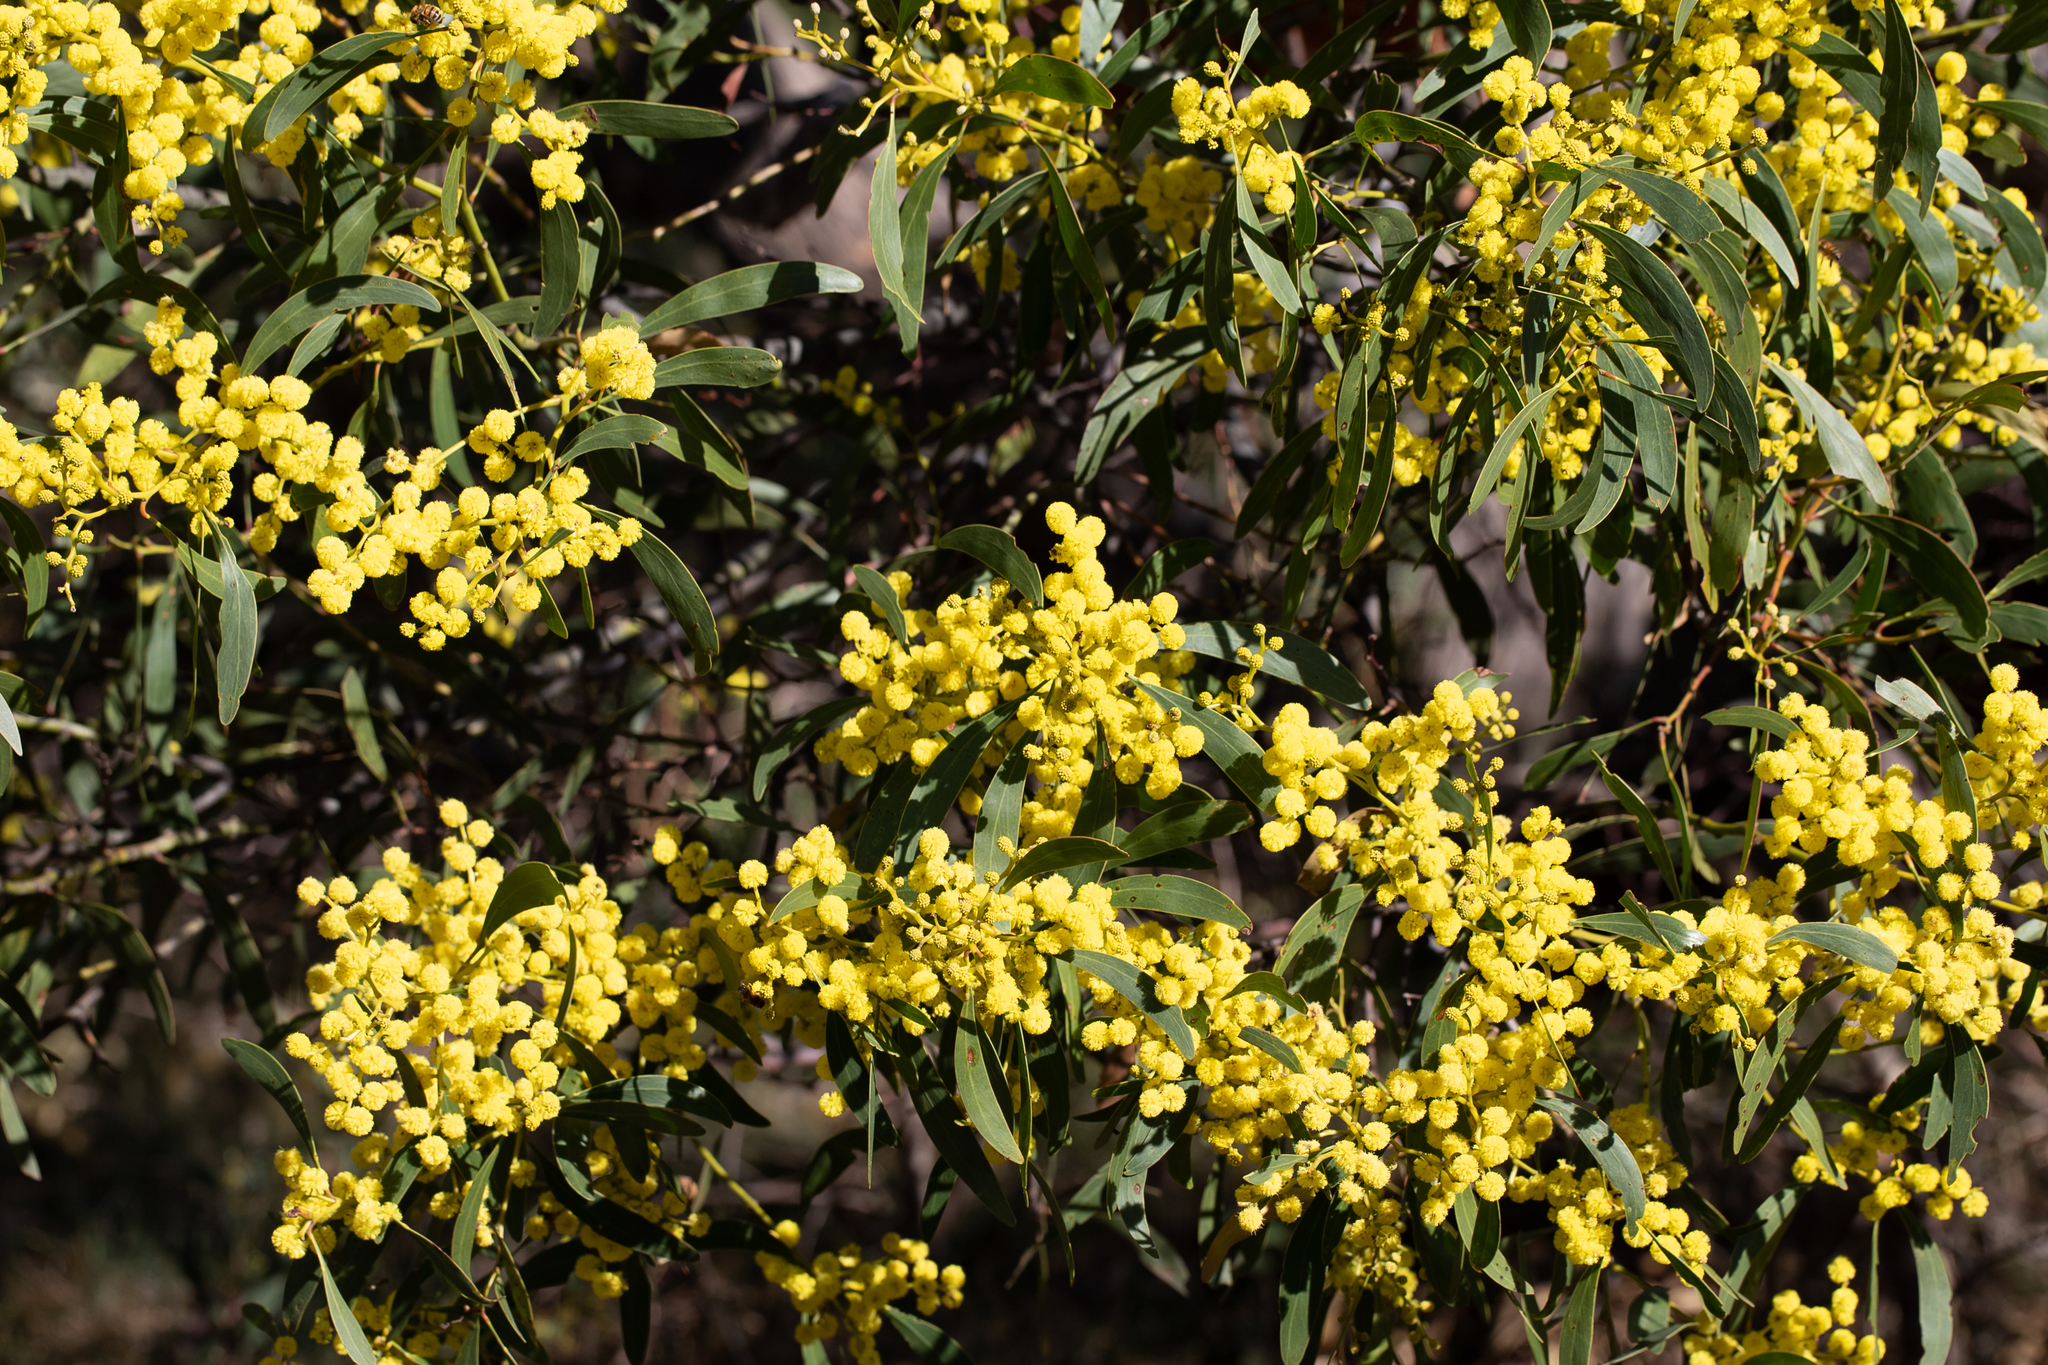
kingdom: Plantae
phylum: Tracheophyta
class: Magnoliopsida
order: Fabales
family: Fabaceae
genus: Acacia
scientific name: Acacia pycnantha
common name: Golden wattle
